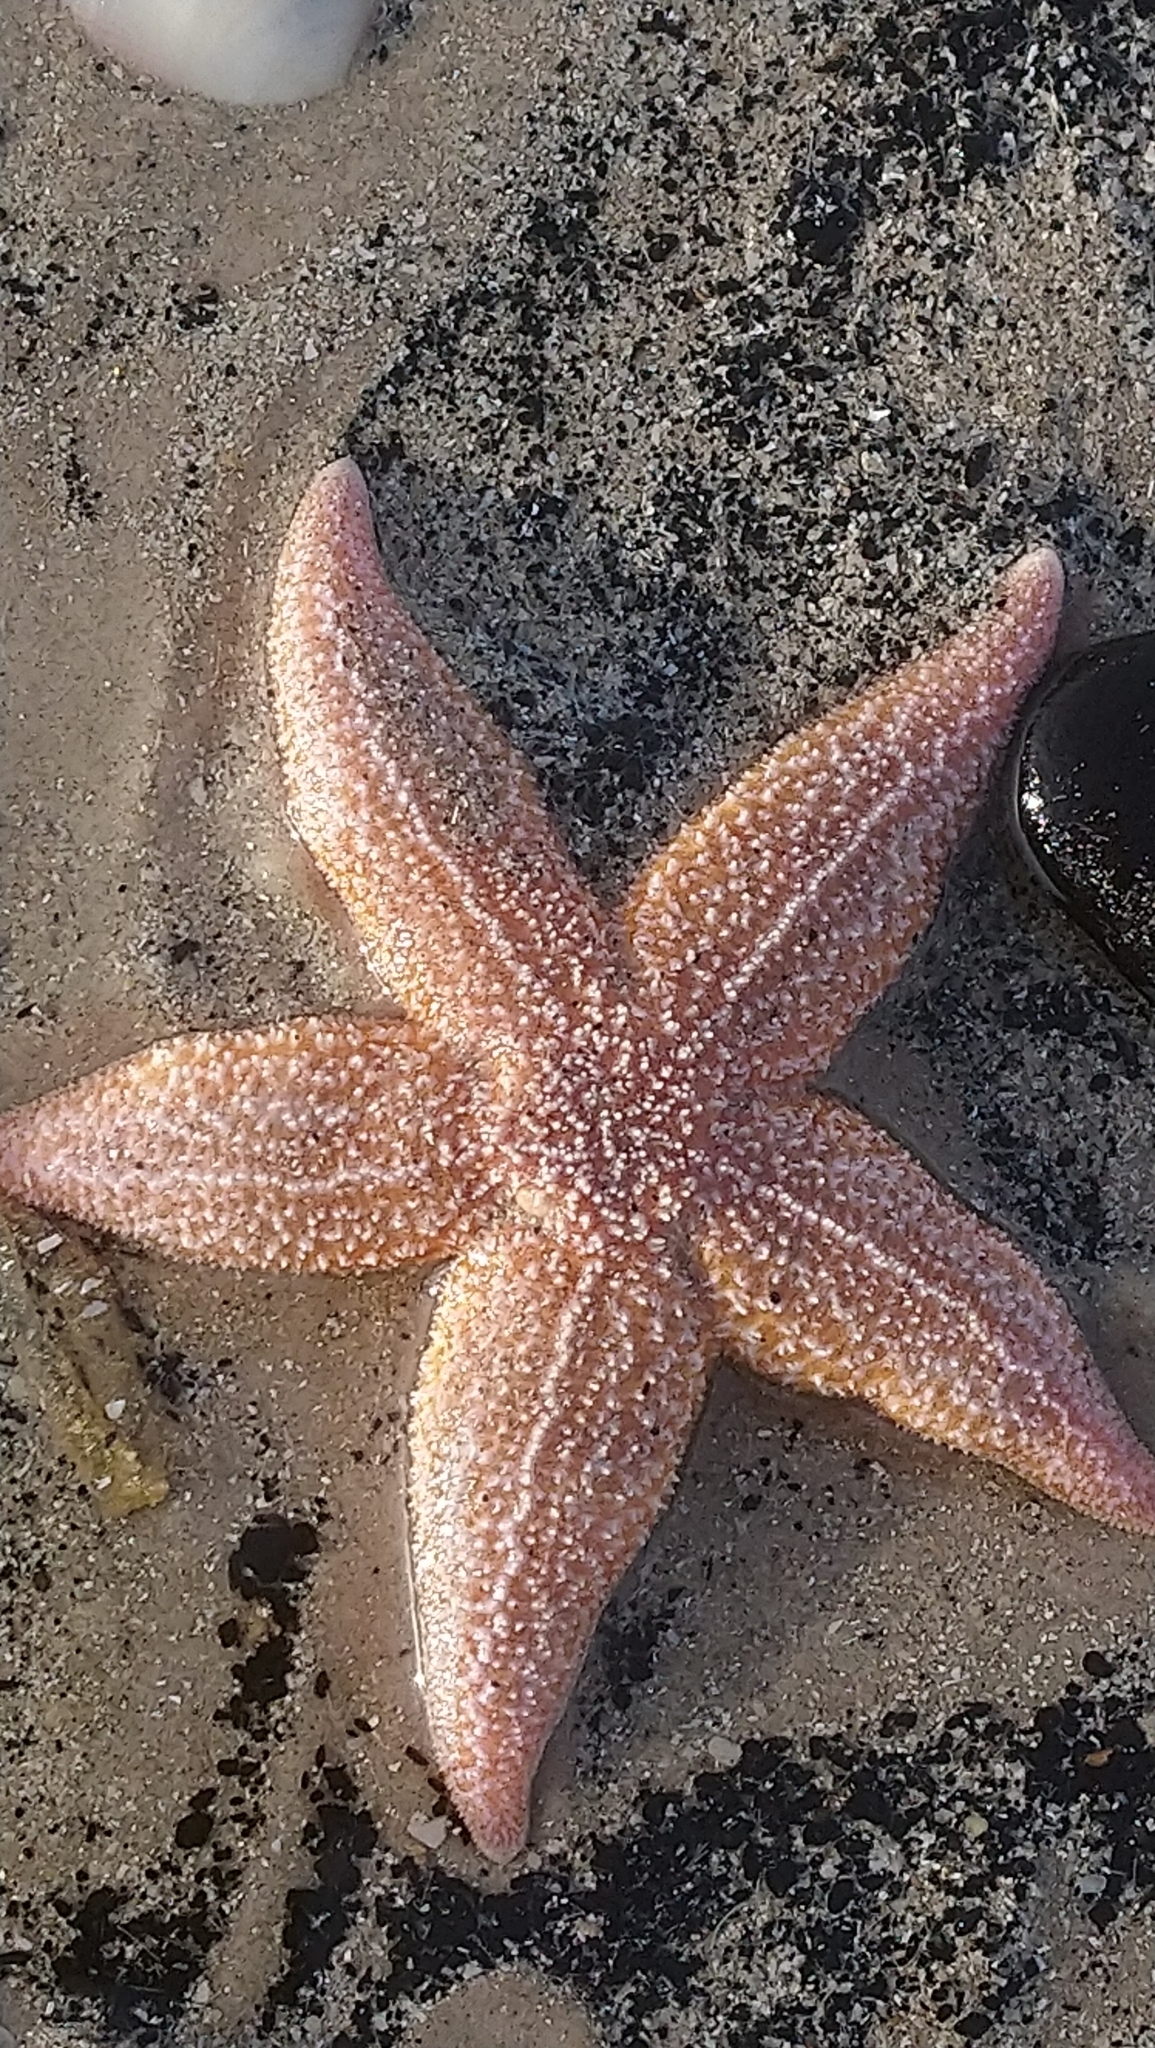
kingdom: Animalia
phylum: Echinodermata
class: Asteroidea
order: Forcipulatida
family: Asteriidae
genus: Asterias
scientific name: Asterias rubens
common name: Common starfish
